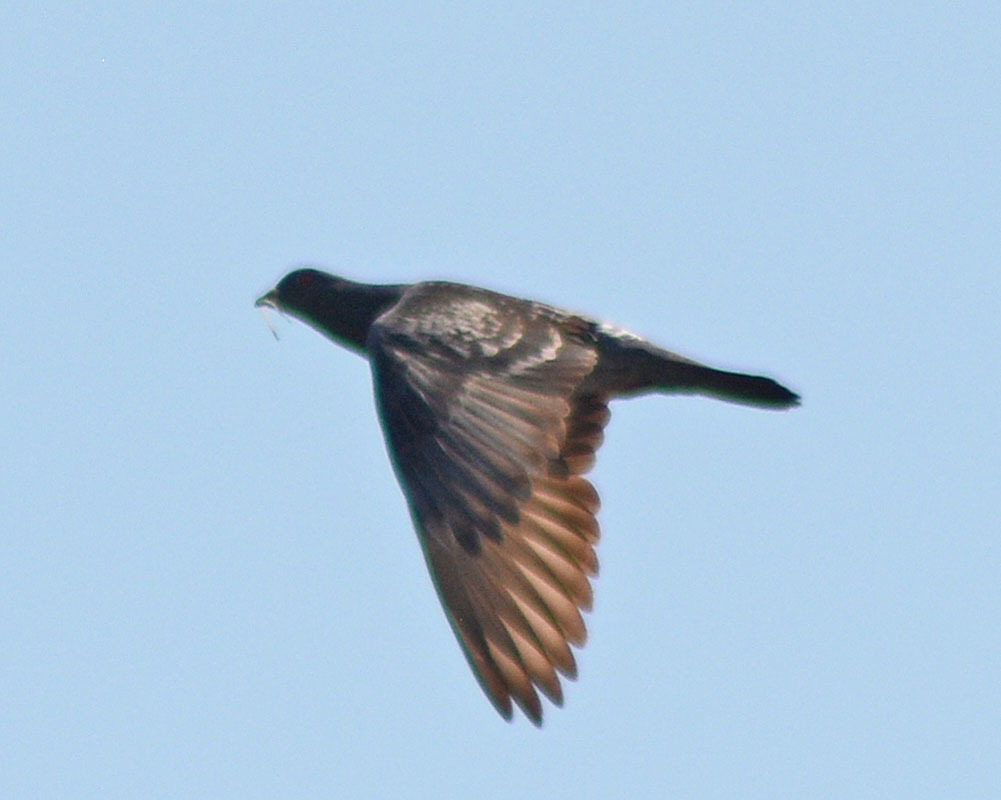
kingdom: Animalia
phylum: Chordata
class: Aves
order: Columbiformes
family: Columbidae
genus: Columba
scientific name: Columba livia
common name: Rock pigeon
